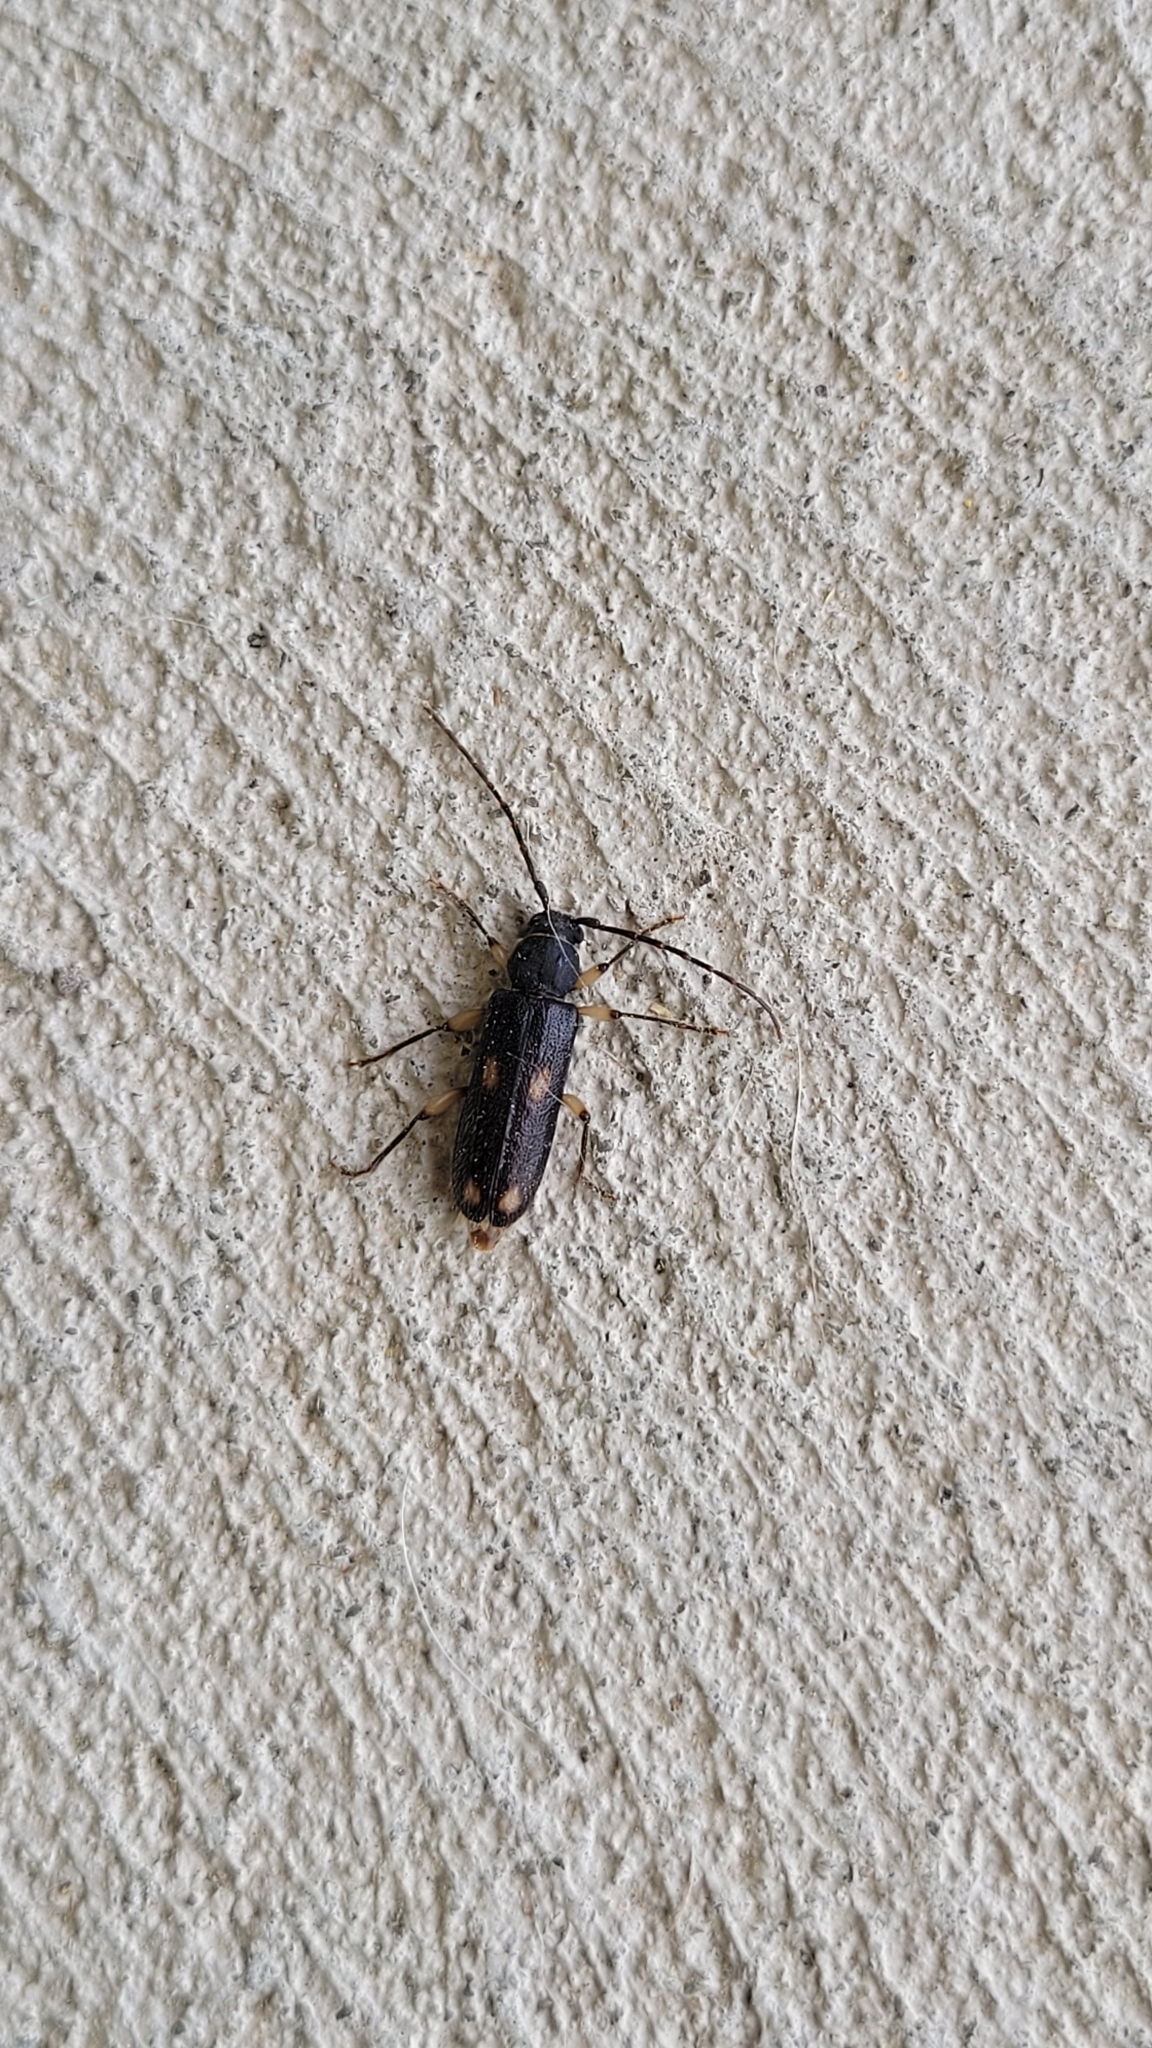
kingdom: Animalia
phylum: Arthropoda
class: Insecta
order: Coleoptera
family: Cerambycidae
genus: Tylonotus
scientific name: Tylonotus bimaculatus
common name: Ash and privet borer
